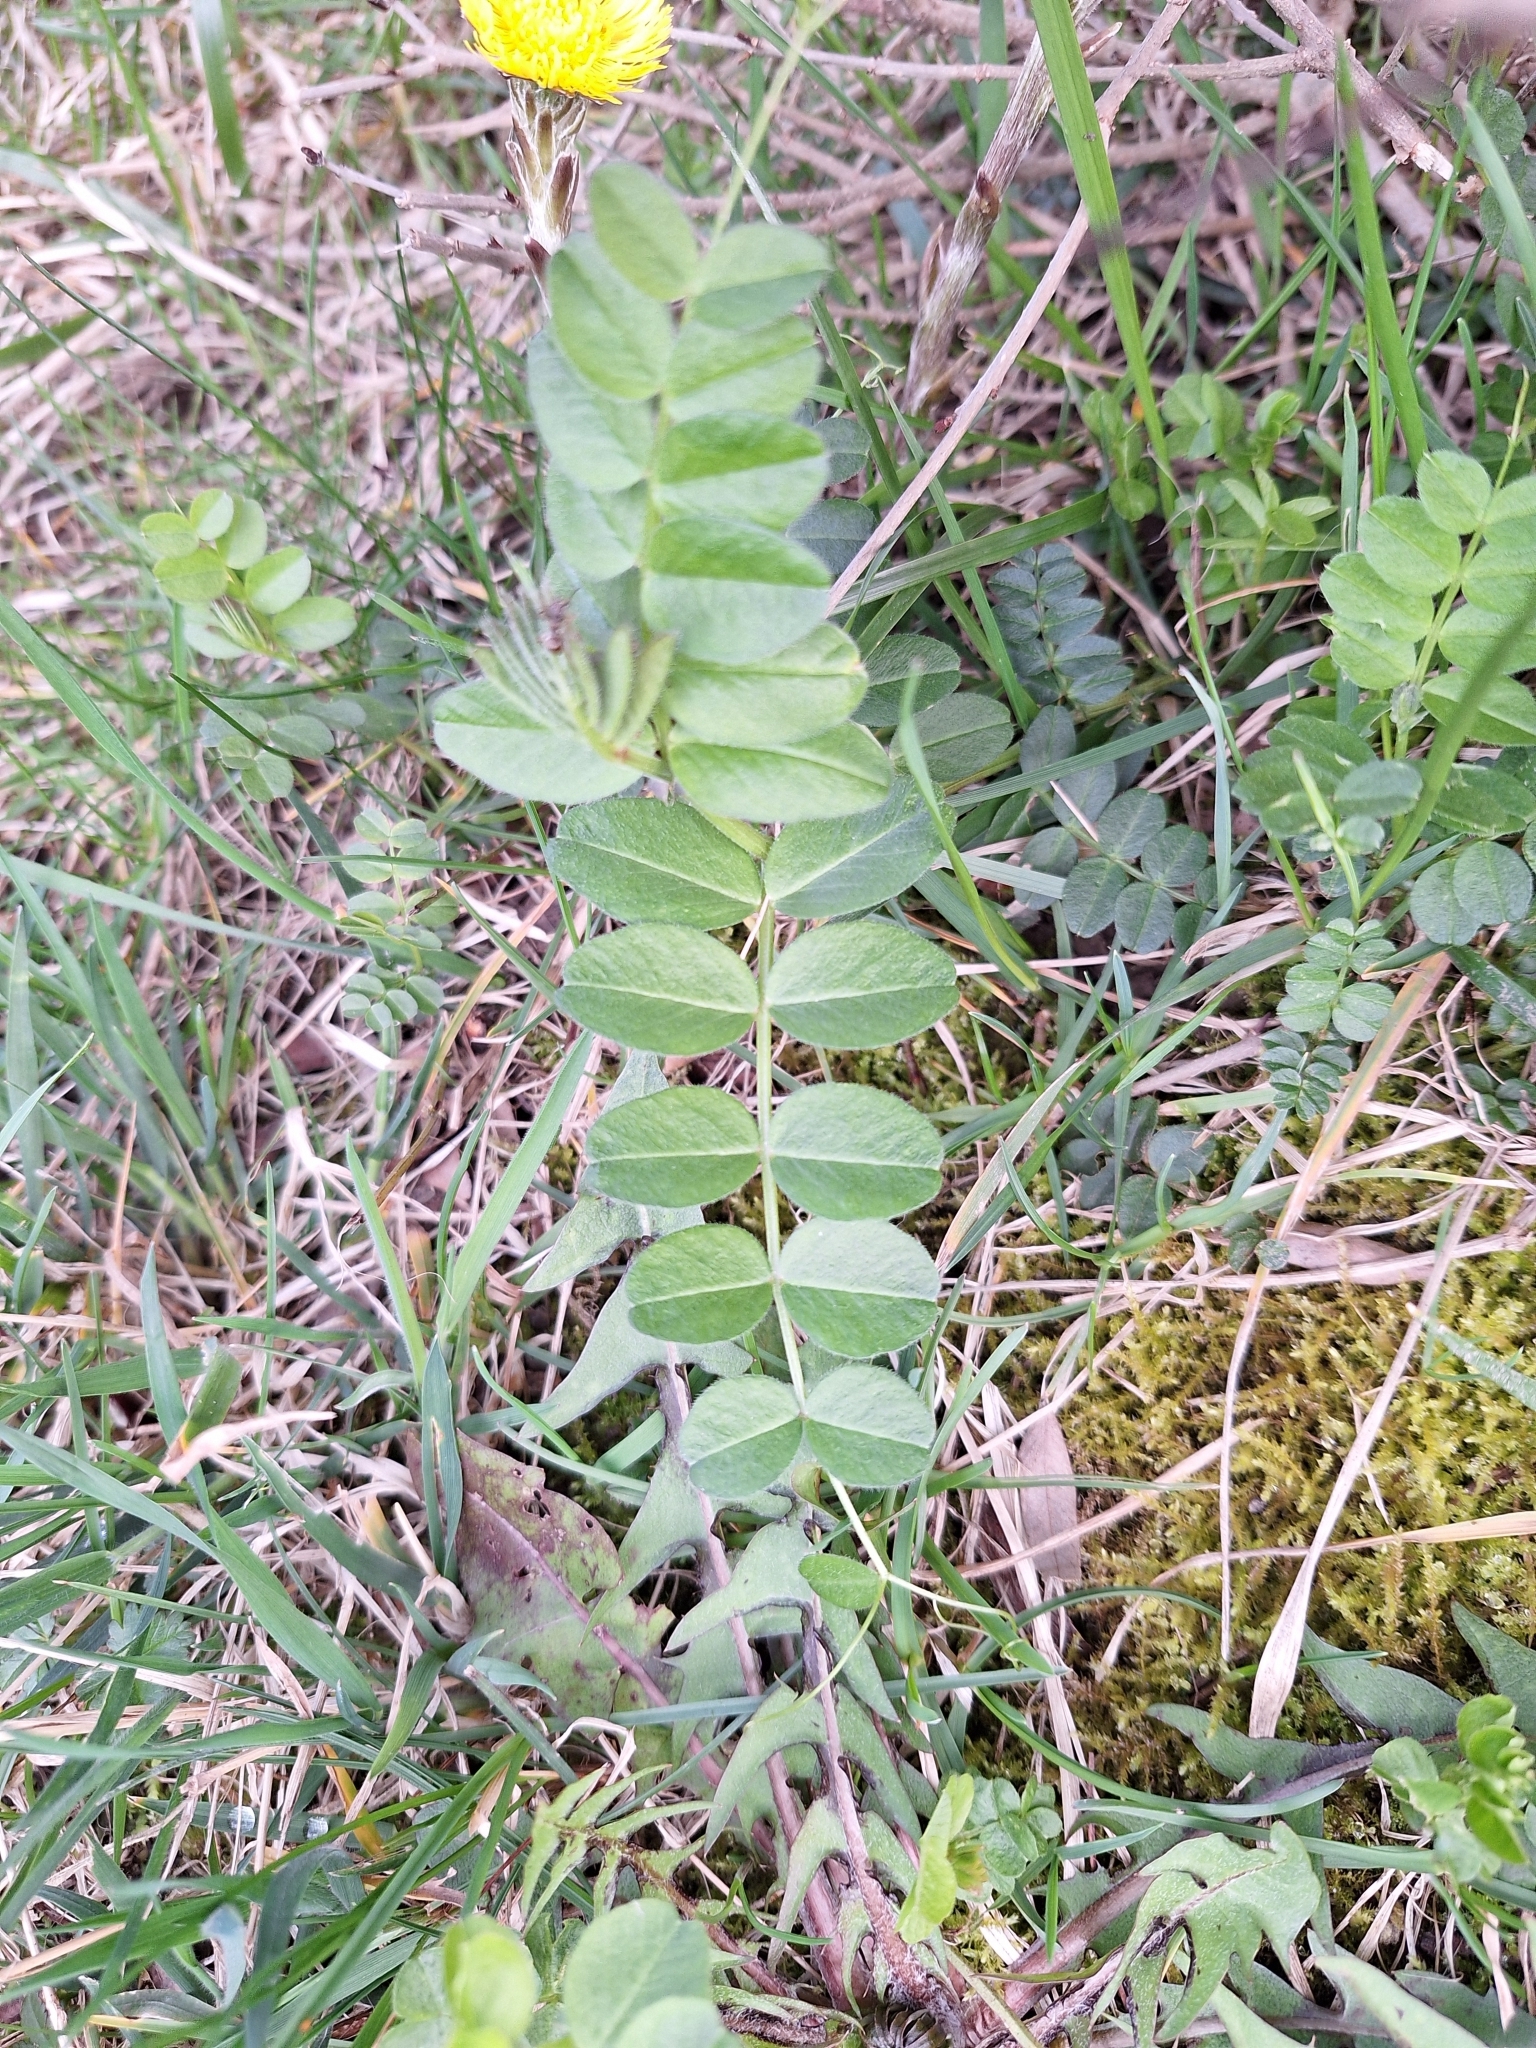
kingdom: Plantae
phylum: Tracheophyta
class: Magnoliopsida
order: Fabales
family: Fabaceae
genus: Vicia
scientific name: Vicia sepium
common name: Bush vetch
